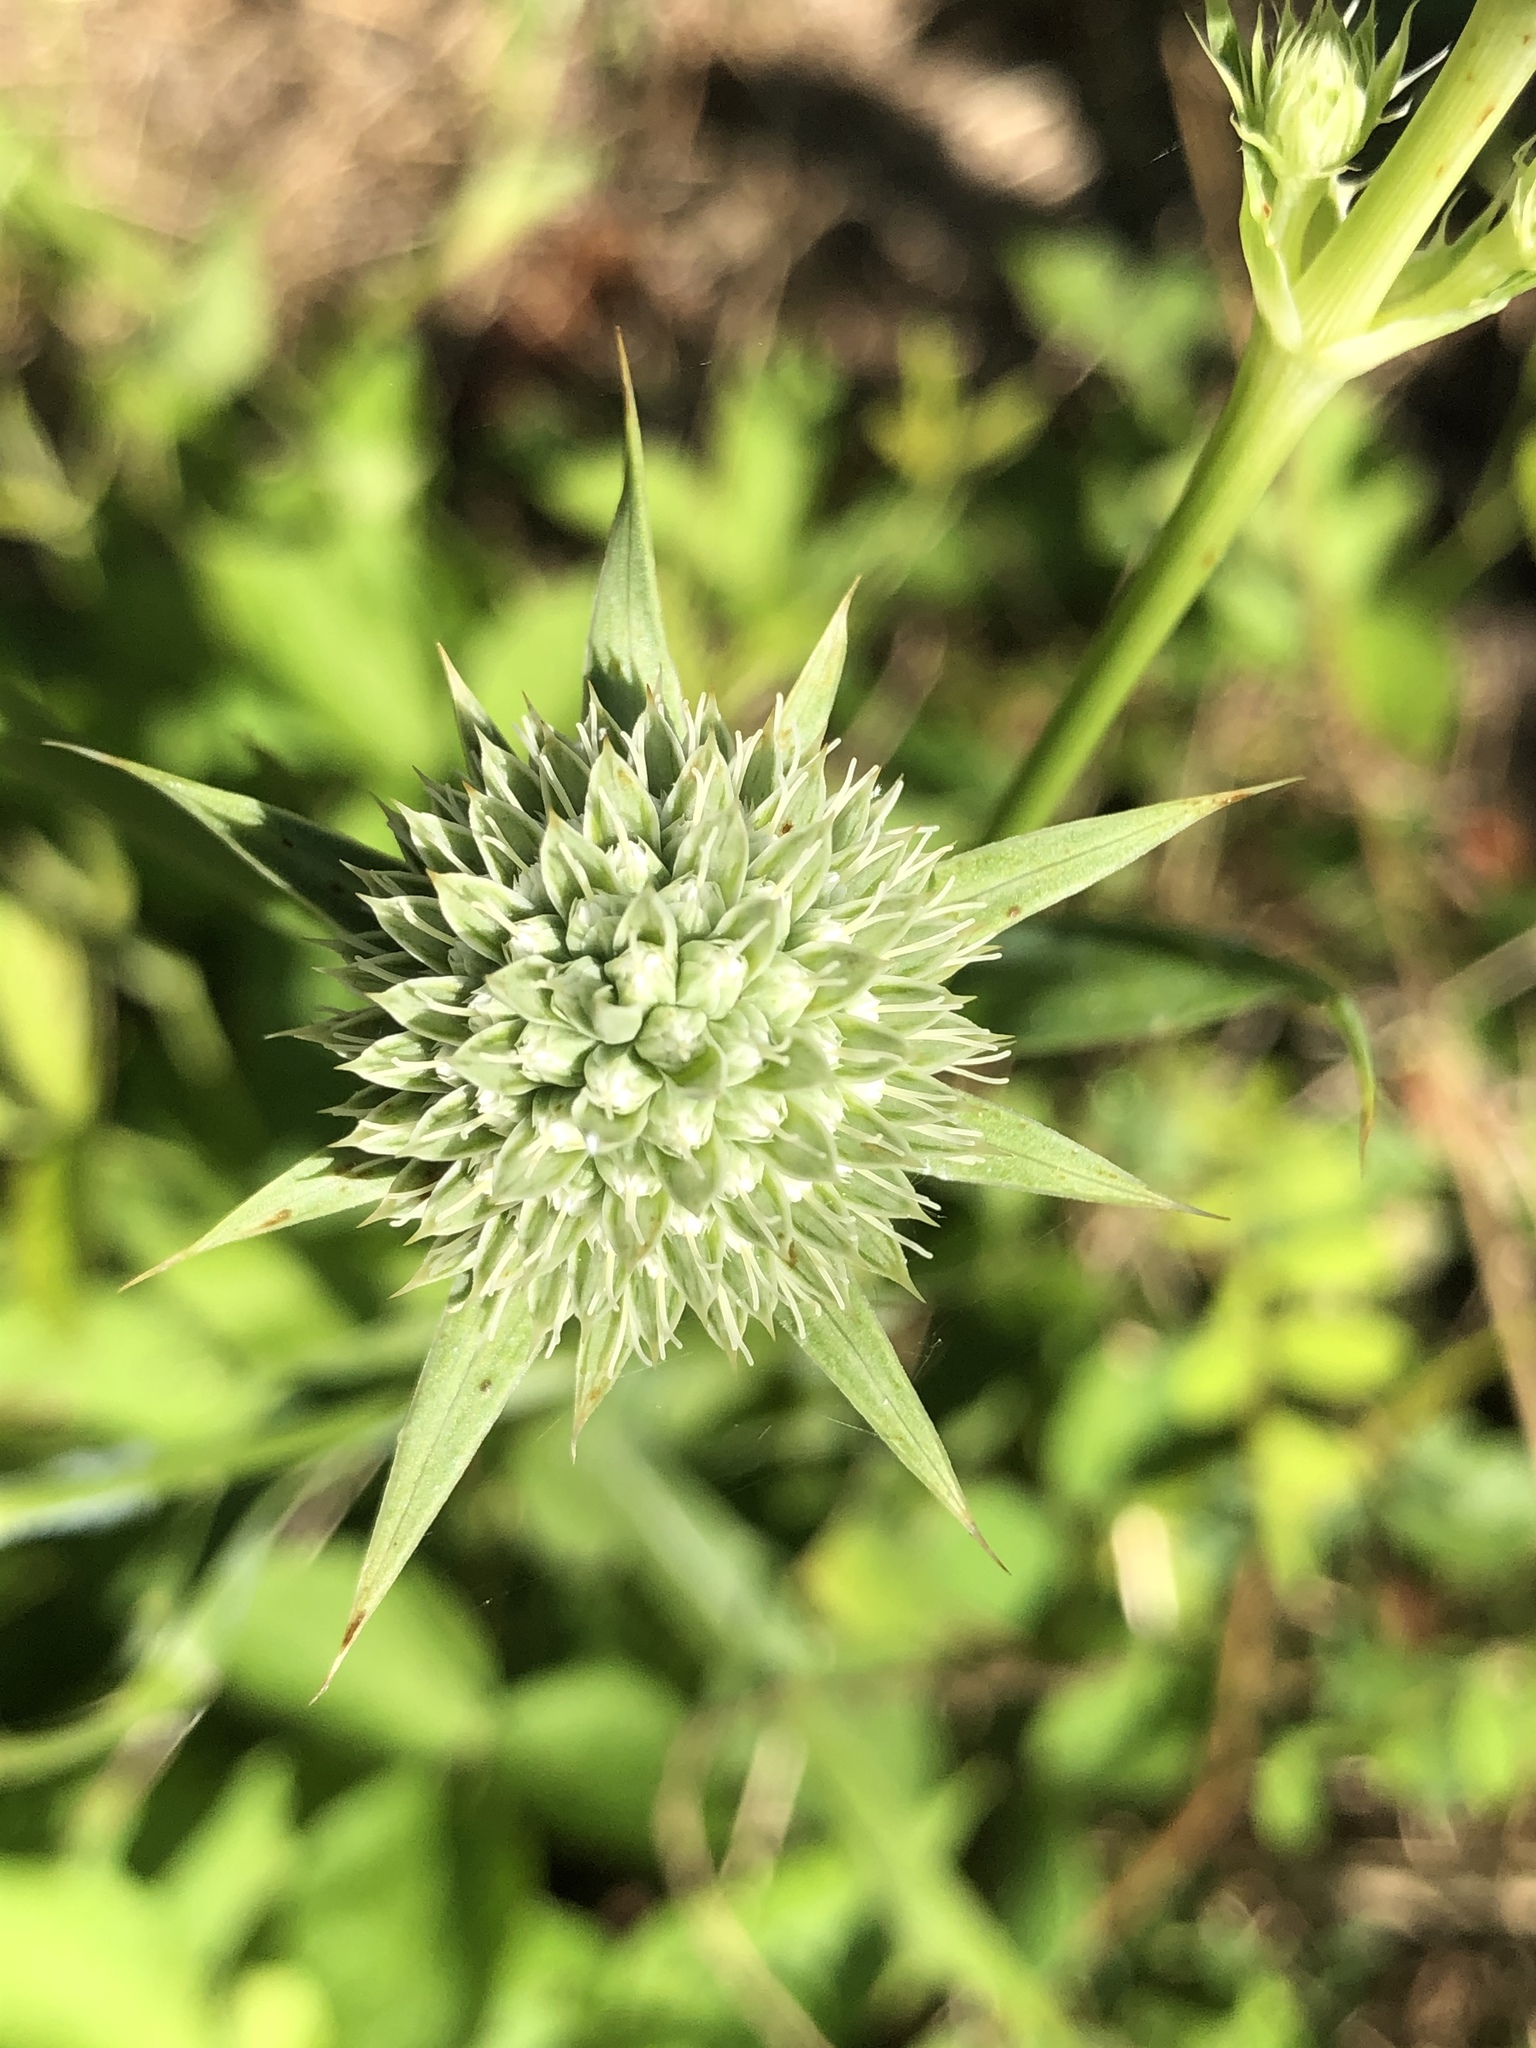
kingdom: Plantae
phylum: Tracheophyta
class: Magnoliopsida
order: Apiales
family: Apiaceae
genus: Eryngium
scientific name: Eryngium yuccifolium
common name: Button eryngo
